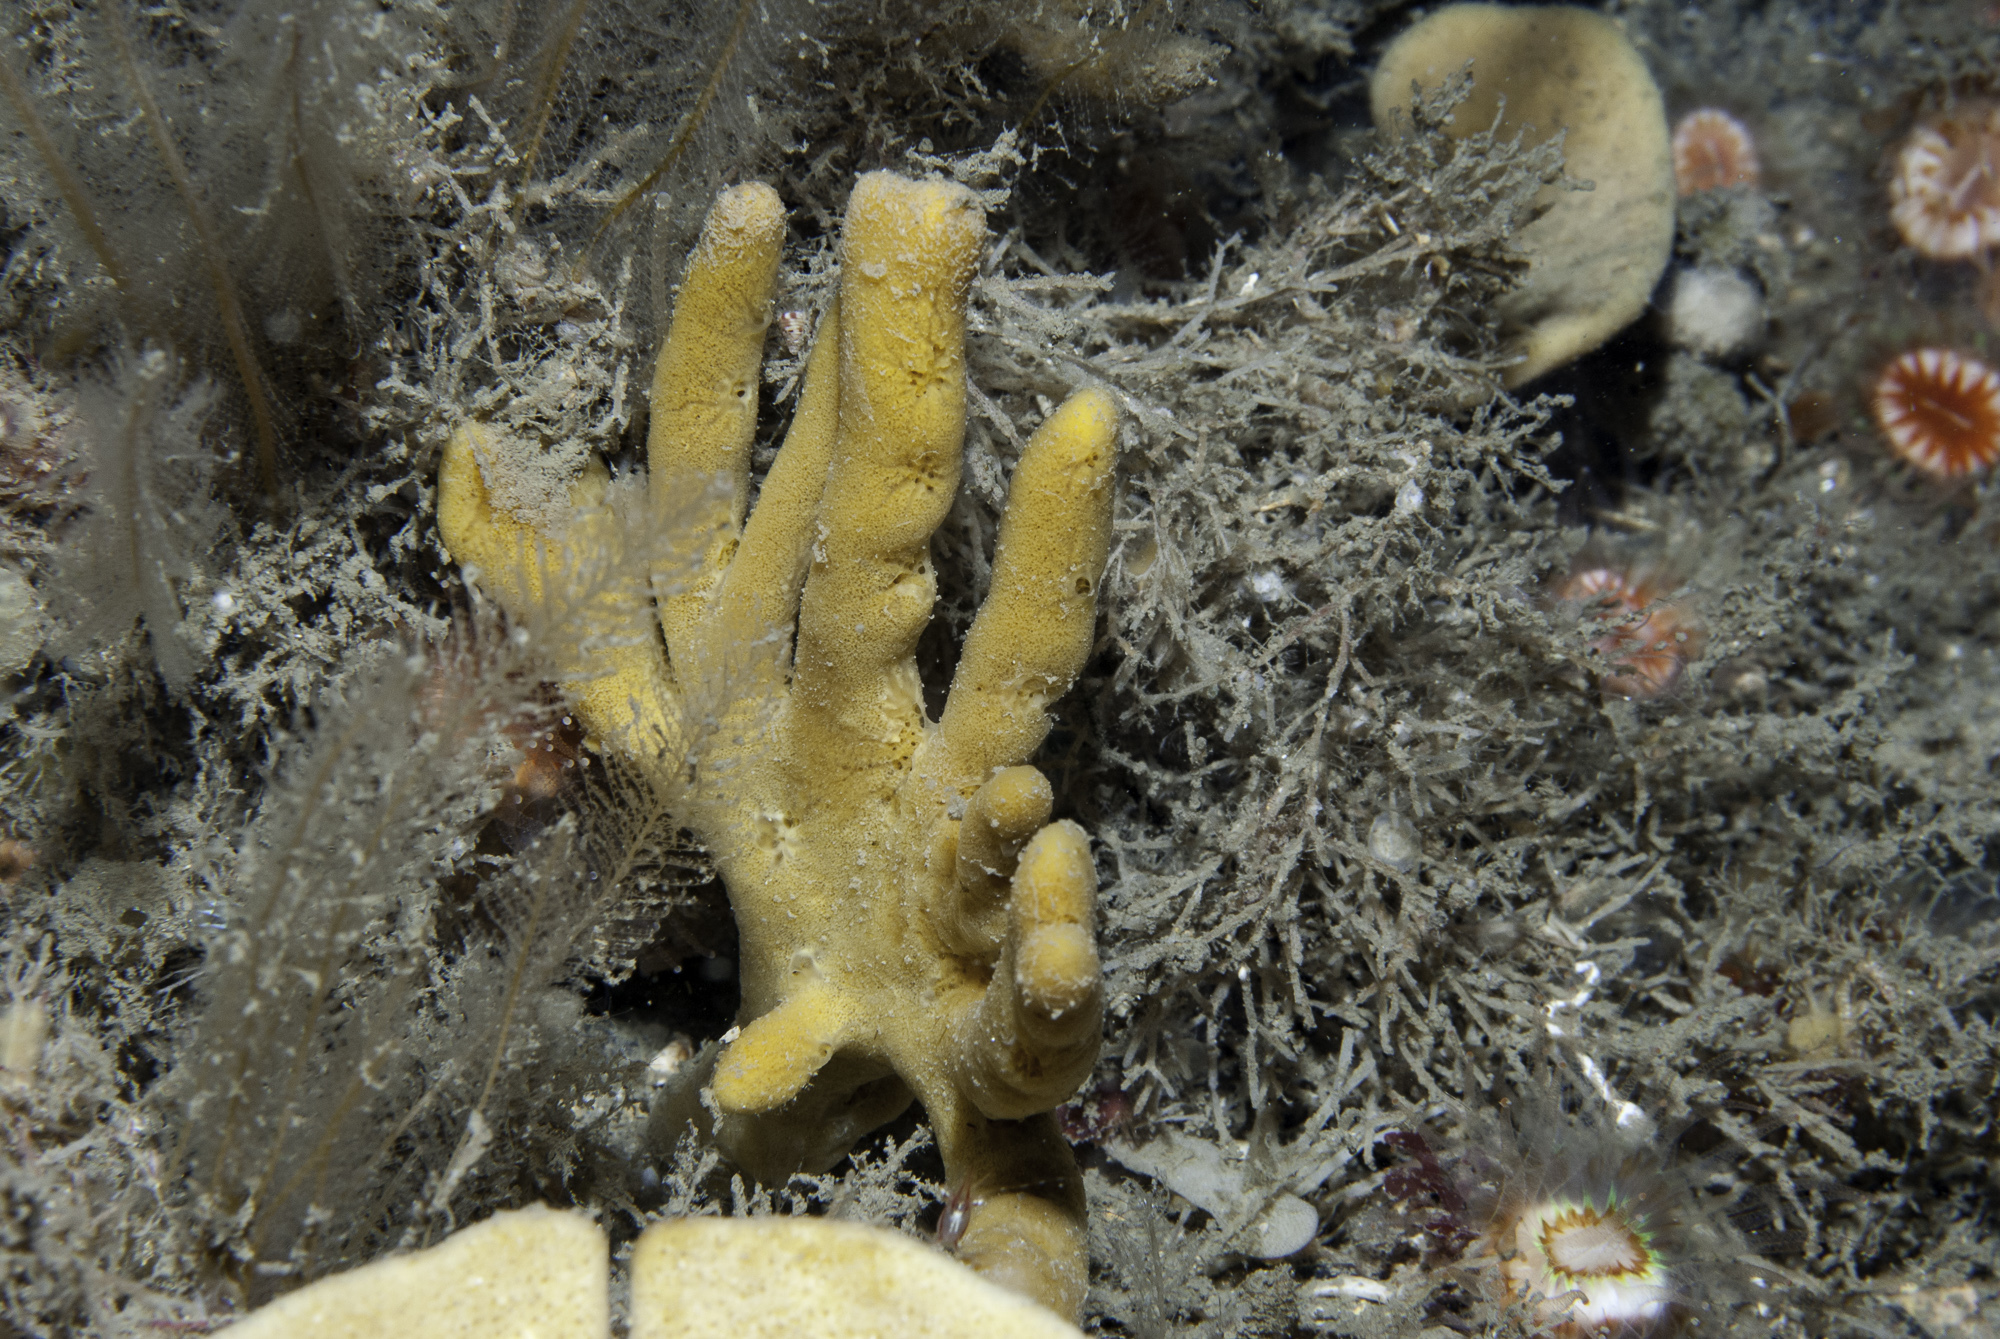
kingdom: Animalia
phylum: Porifera
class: Demospongiae
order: Axinellida
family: Axinellidae
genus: Axinella
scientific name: Axinella dissimilis
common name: Branching sponge
